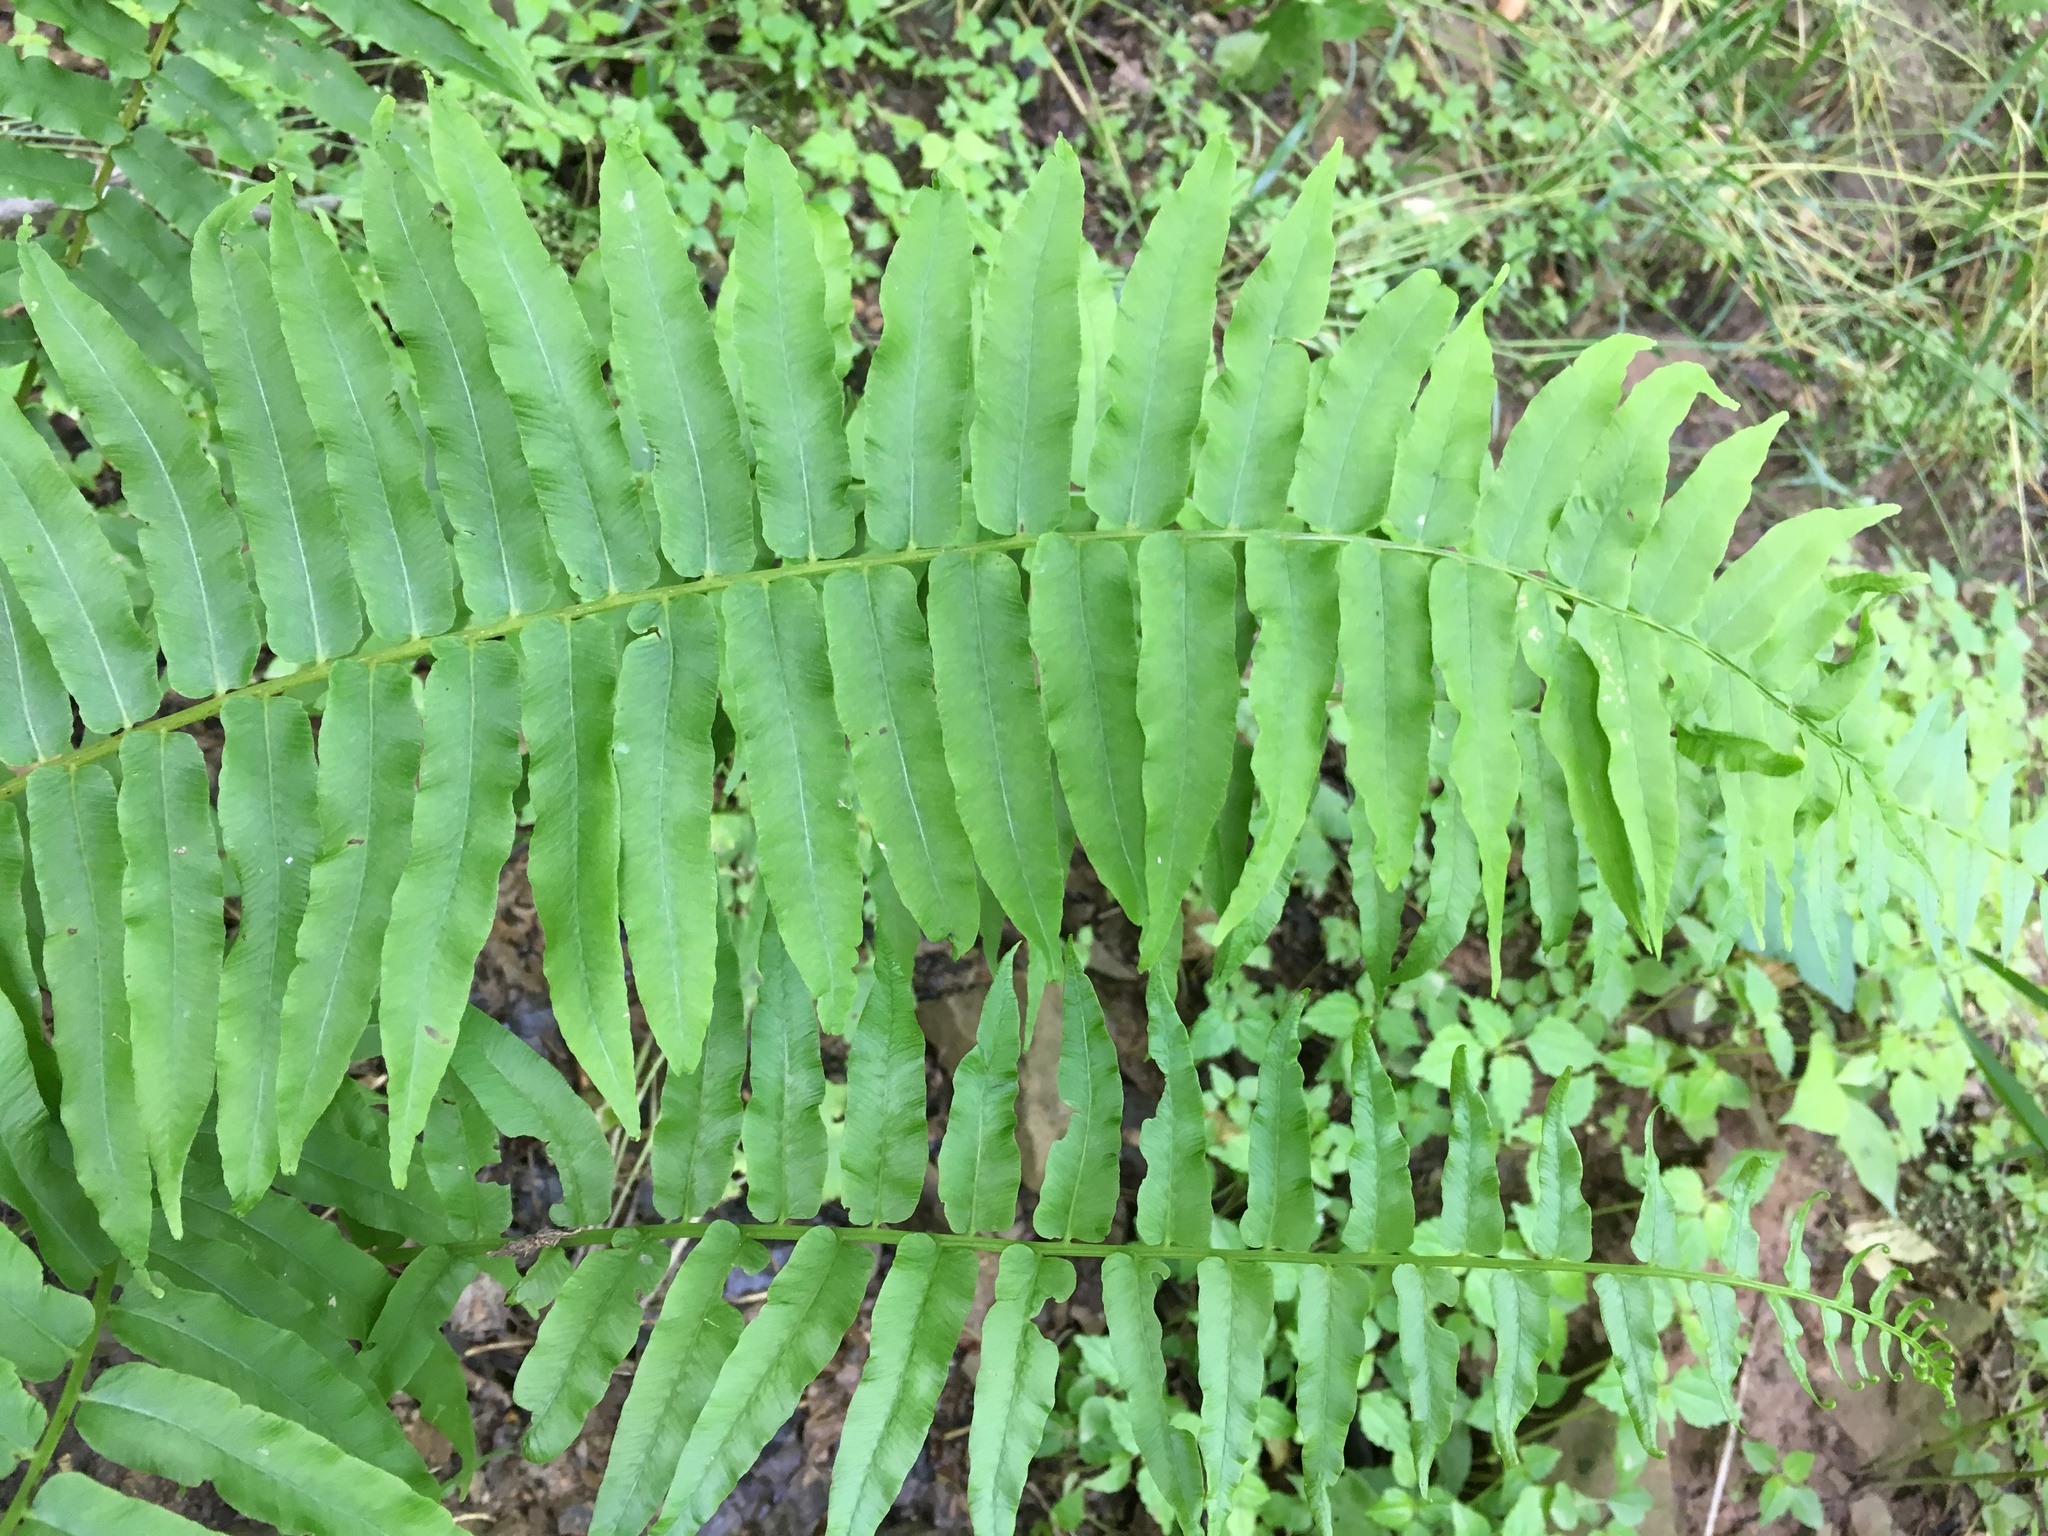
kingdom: Plantae
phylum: Tracheophyta
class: Polypodiopsida
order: Polypodiales
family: Diplaziopsidaceae
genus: Homalosorus
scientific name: Homalosorus pycnocarpos
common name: Glade fern
